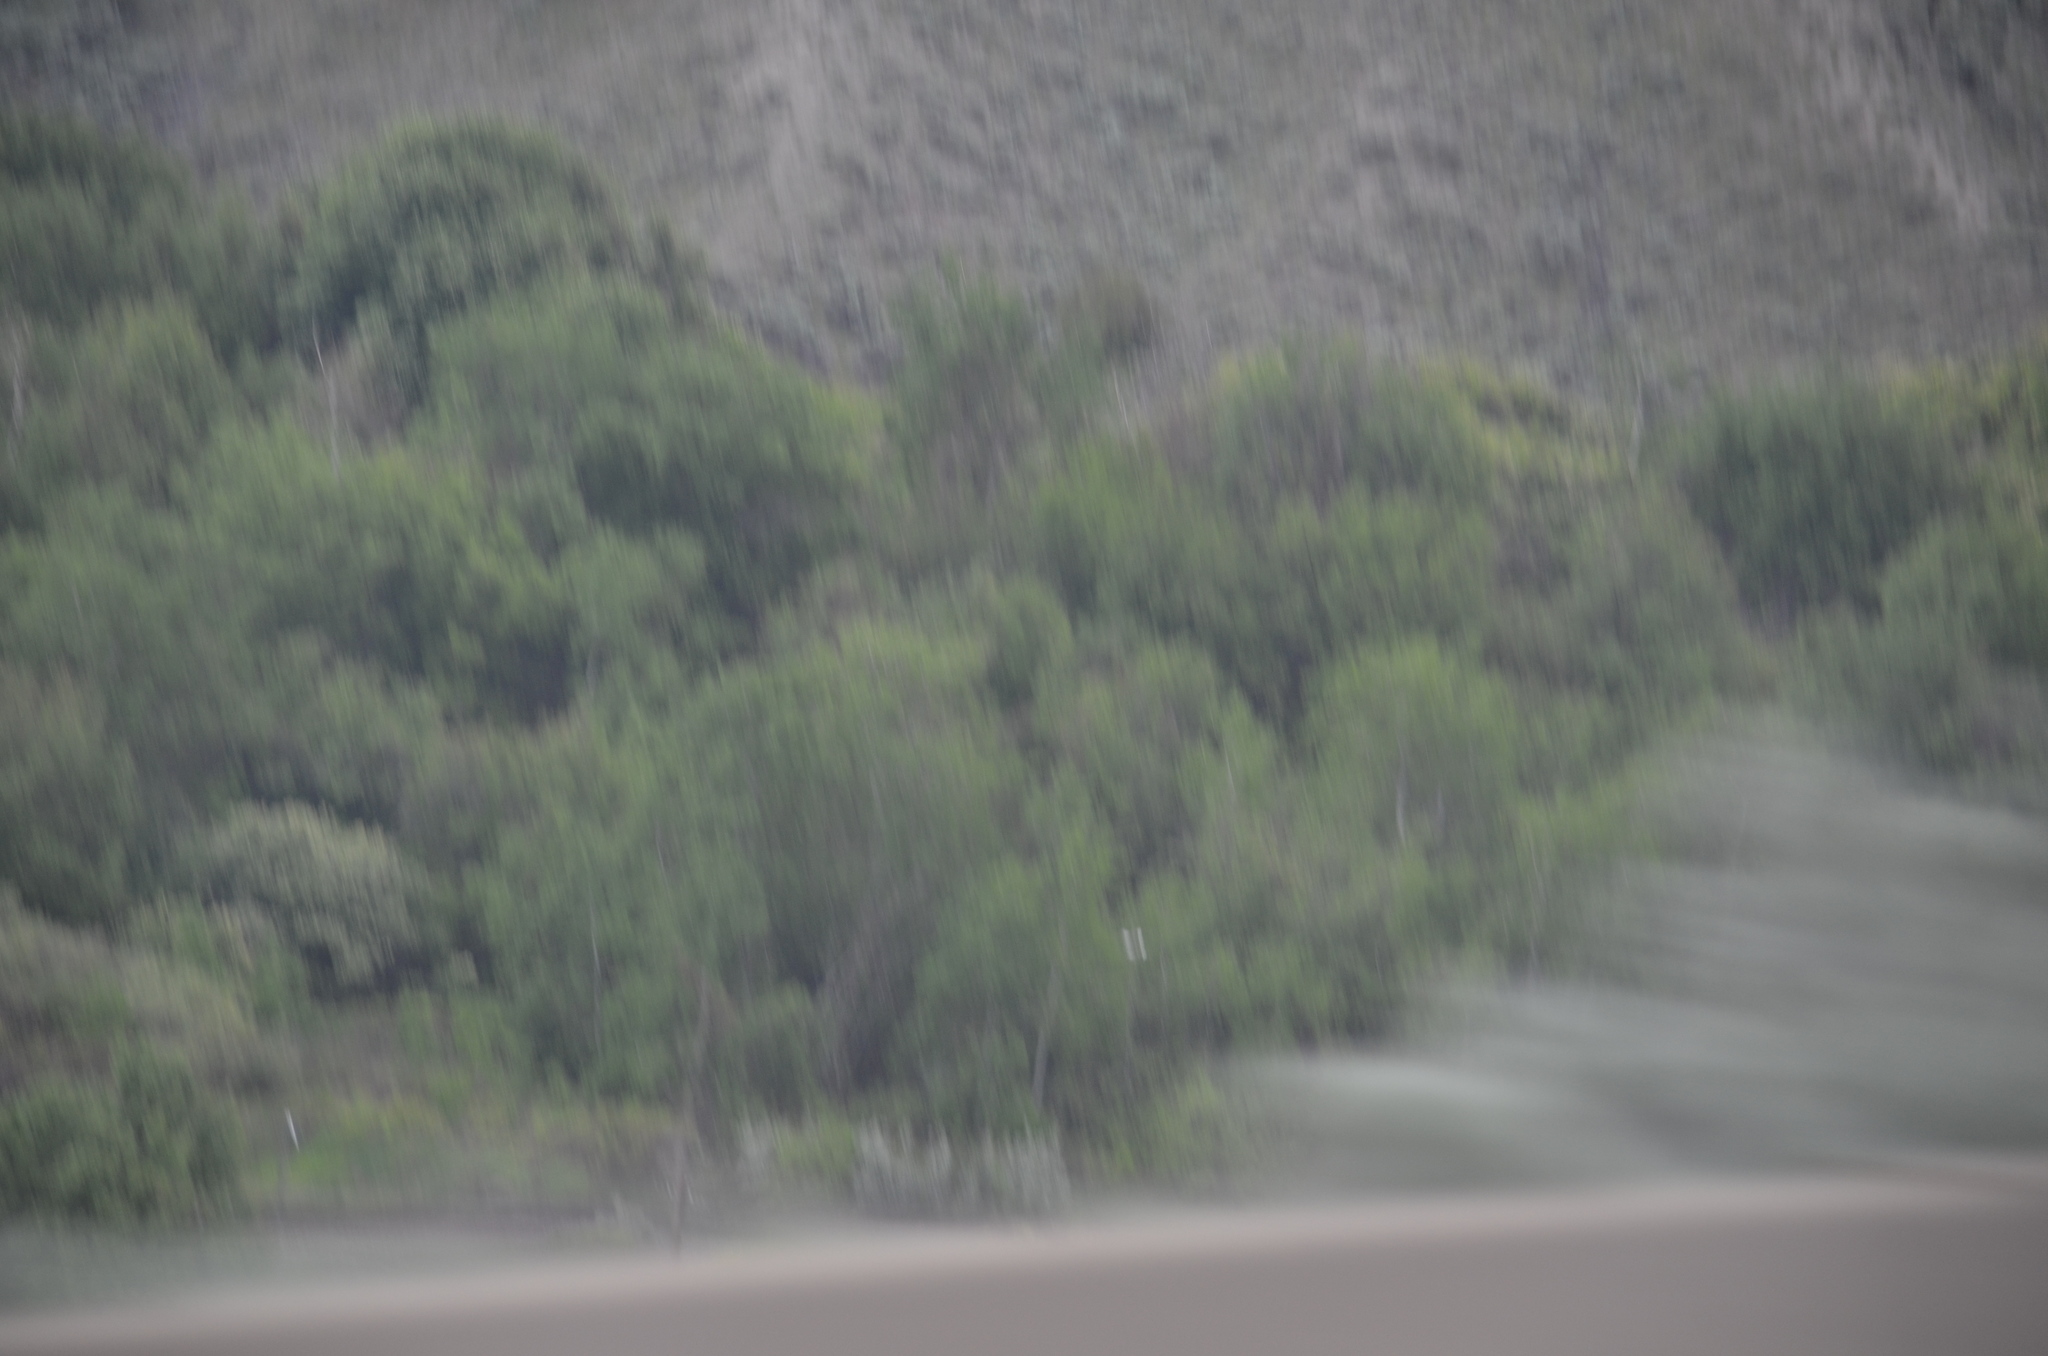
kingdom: Animalia
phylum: Chordata
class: Aves
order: Charadriiformes
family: Laridae
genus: Hydroprogne
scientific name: Hydroprogne caspia
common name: Caspian tern
